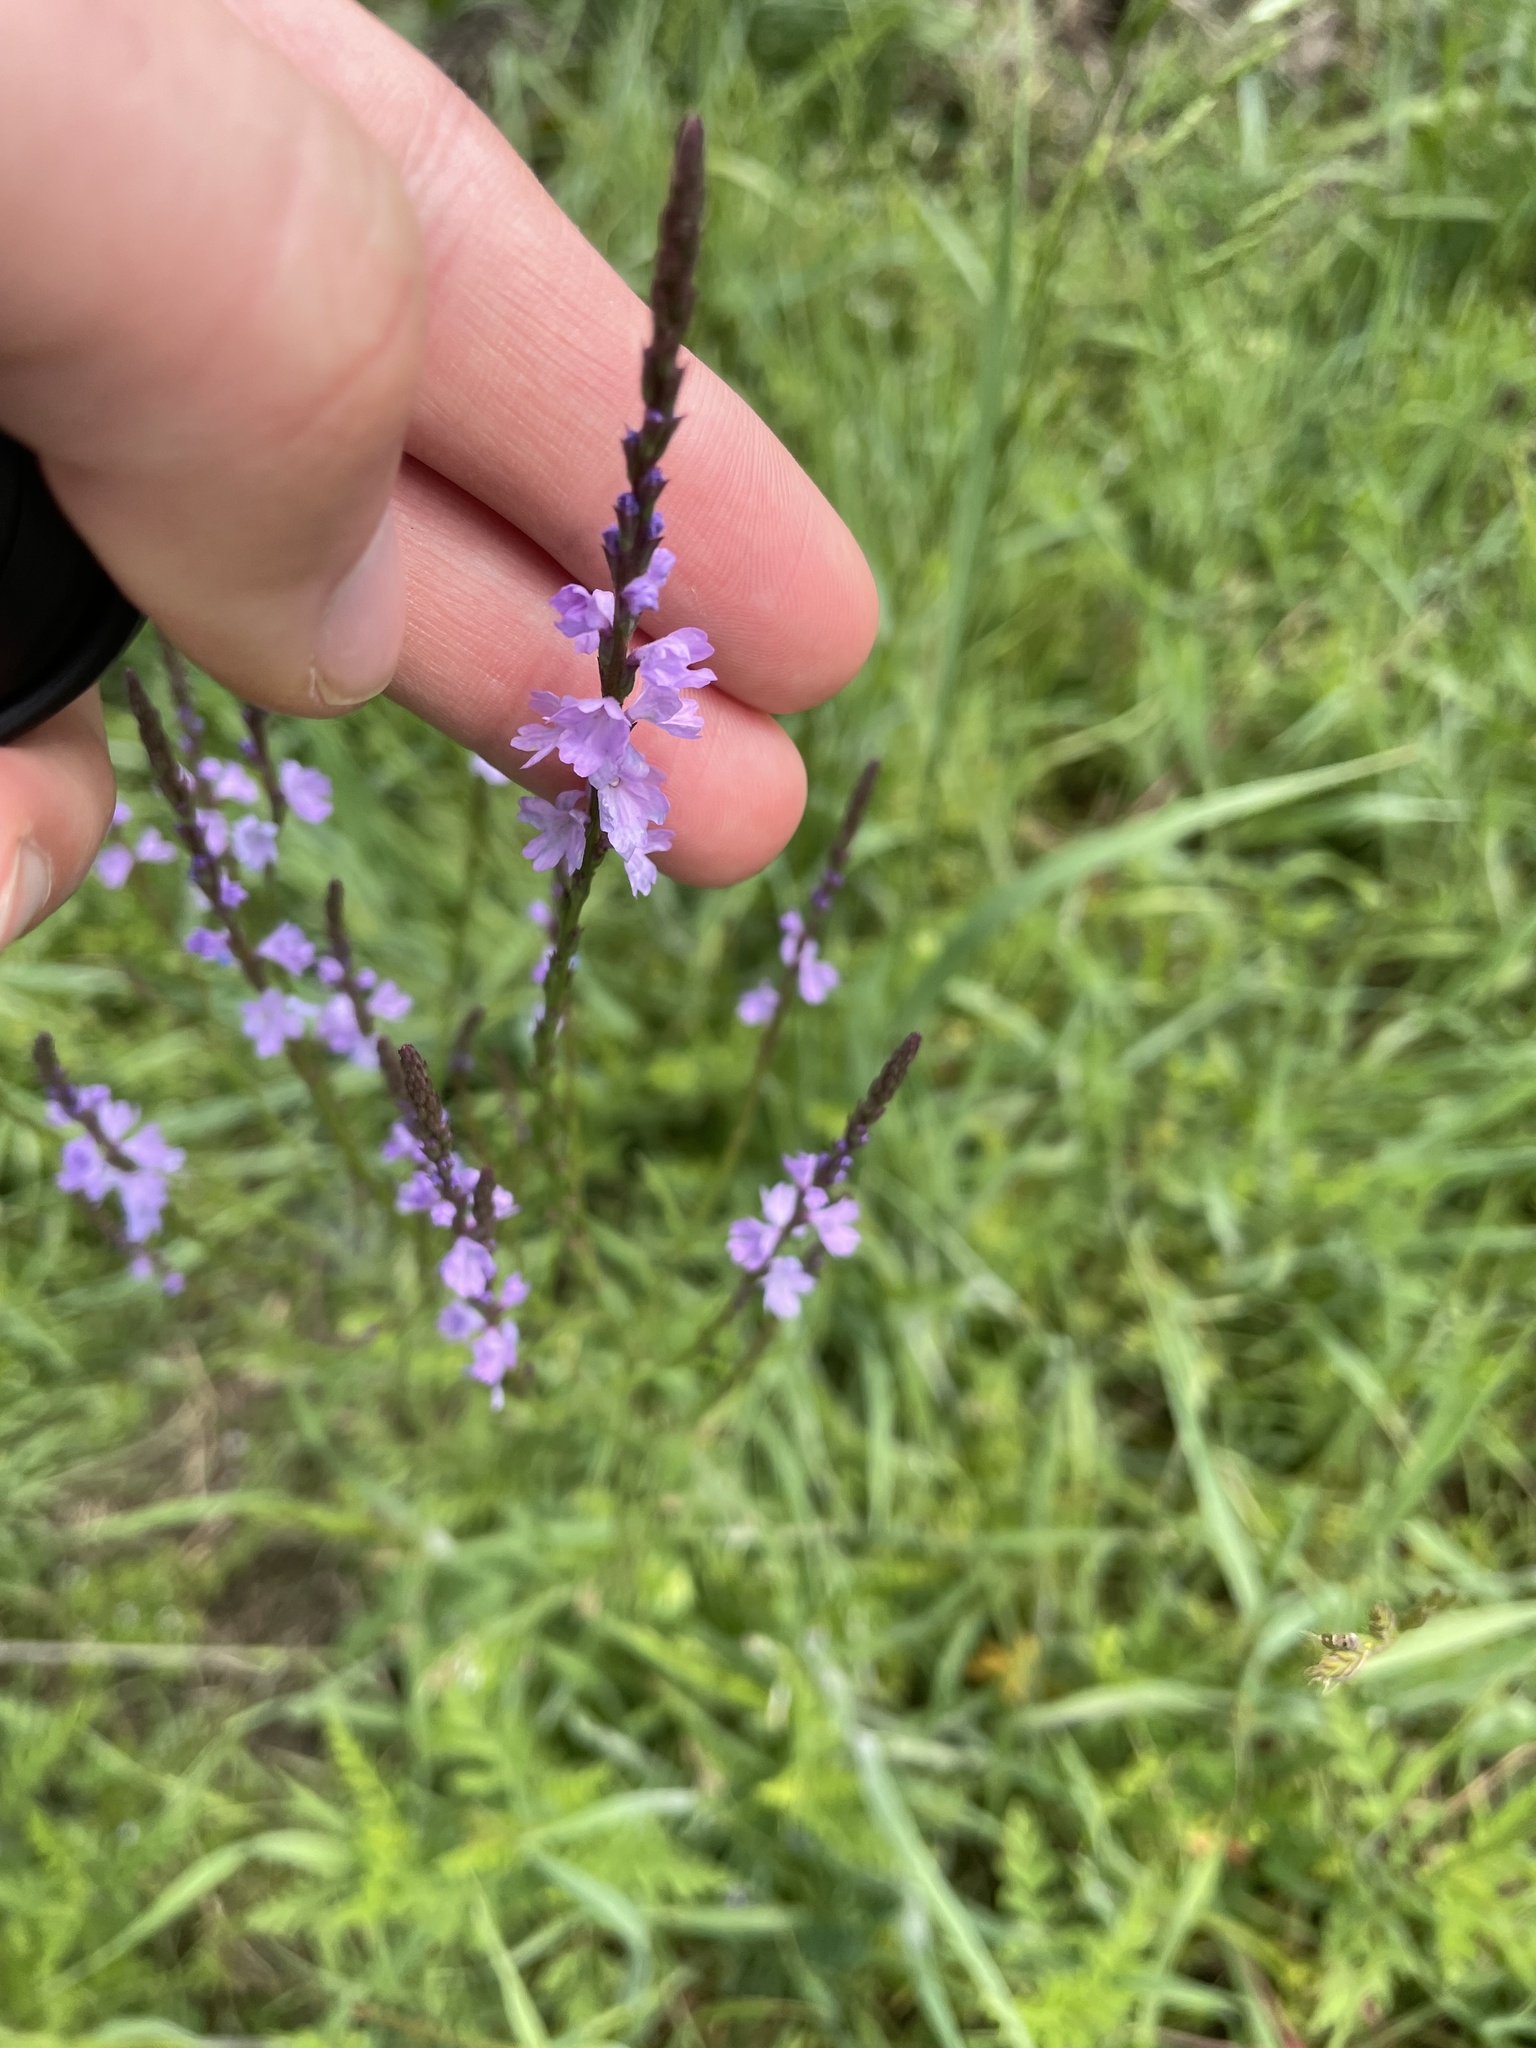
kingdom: Plantae
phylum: Tracheophyta
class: Magnoliopsida
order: Lamiales
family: Verbenaceae
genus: Verbena
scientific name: Verbena halei
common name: Texas vervain
